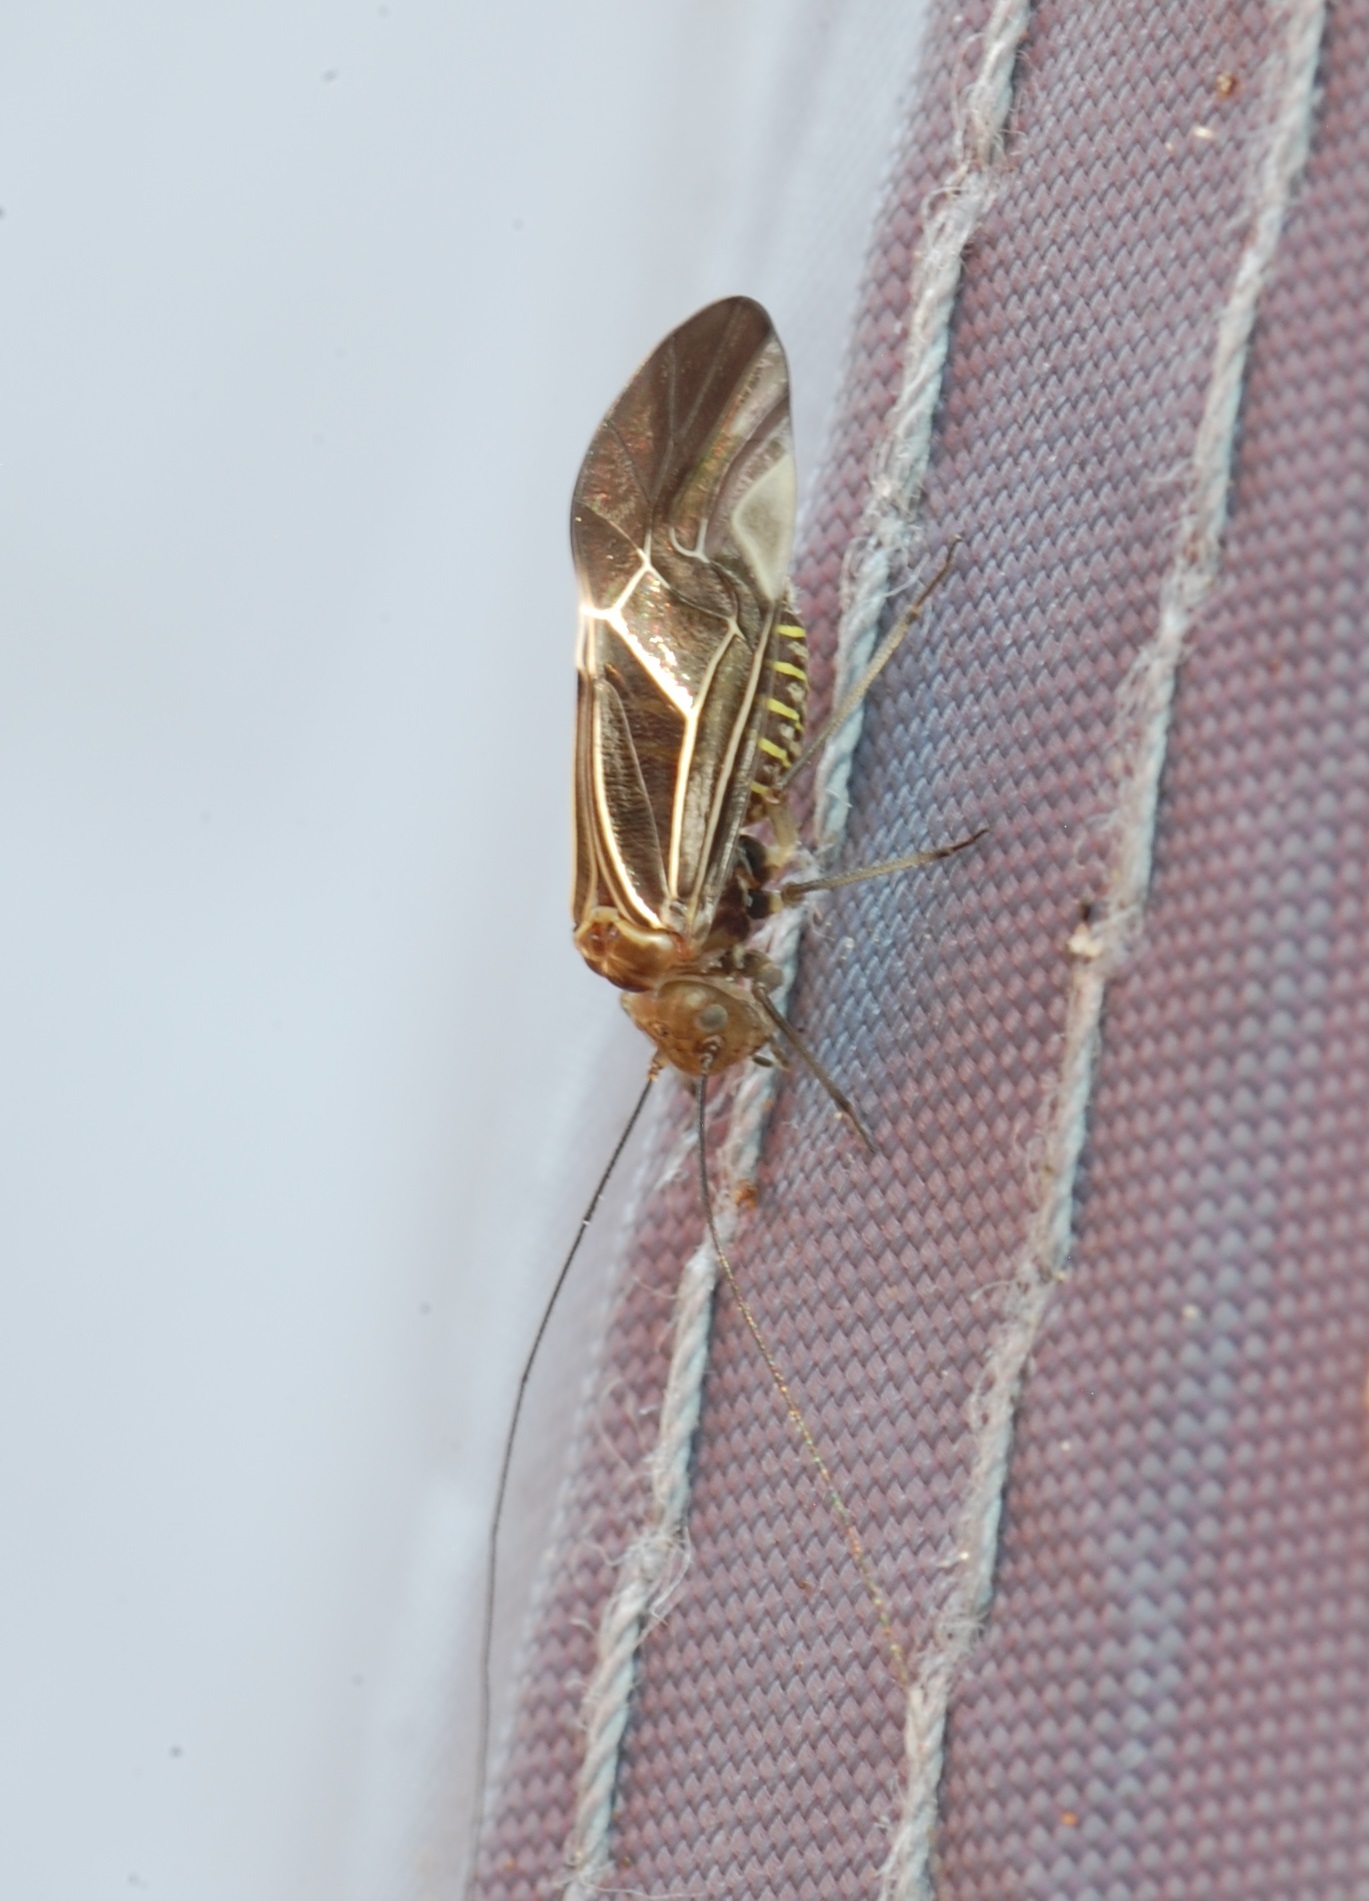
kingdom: Animalia
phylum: Arthropoda
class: Insecta
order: Psocodea
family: Psocidae
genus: Cerastipsocus
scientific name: Cerastipsocus venosus
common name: Tree cattle
